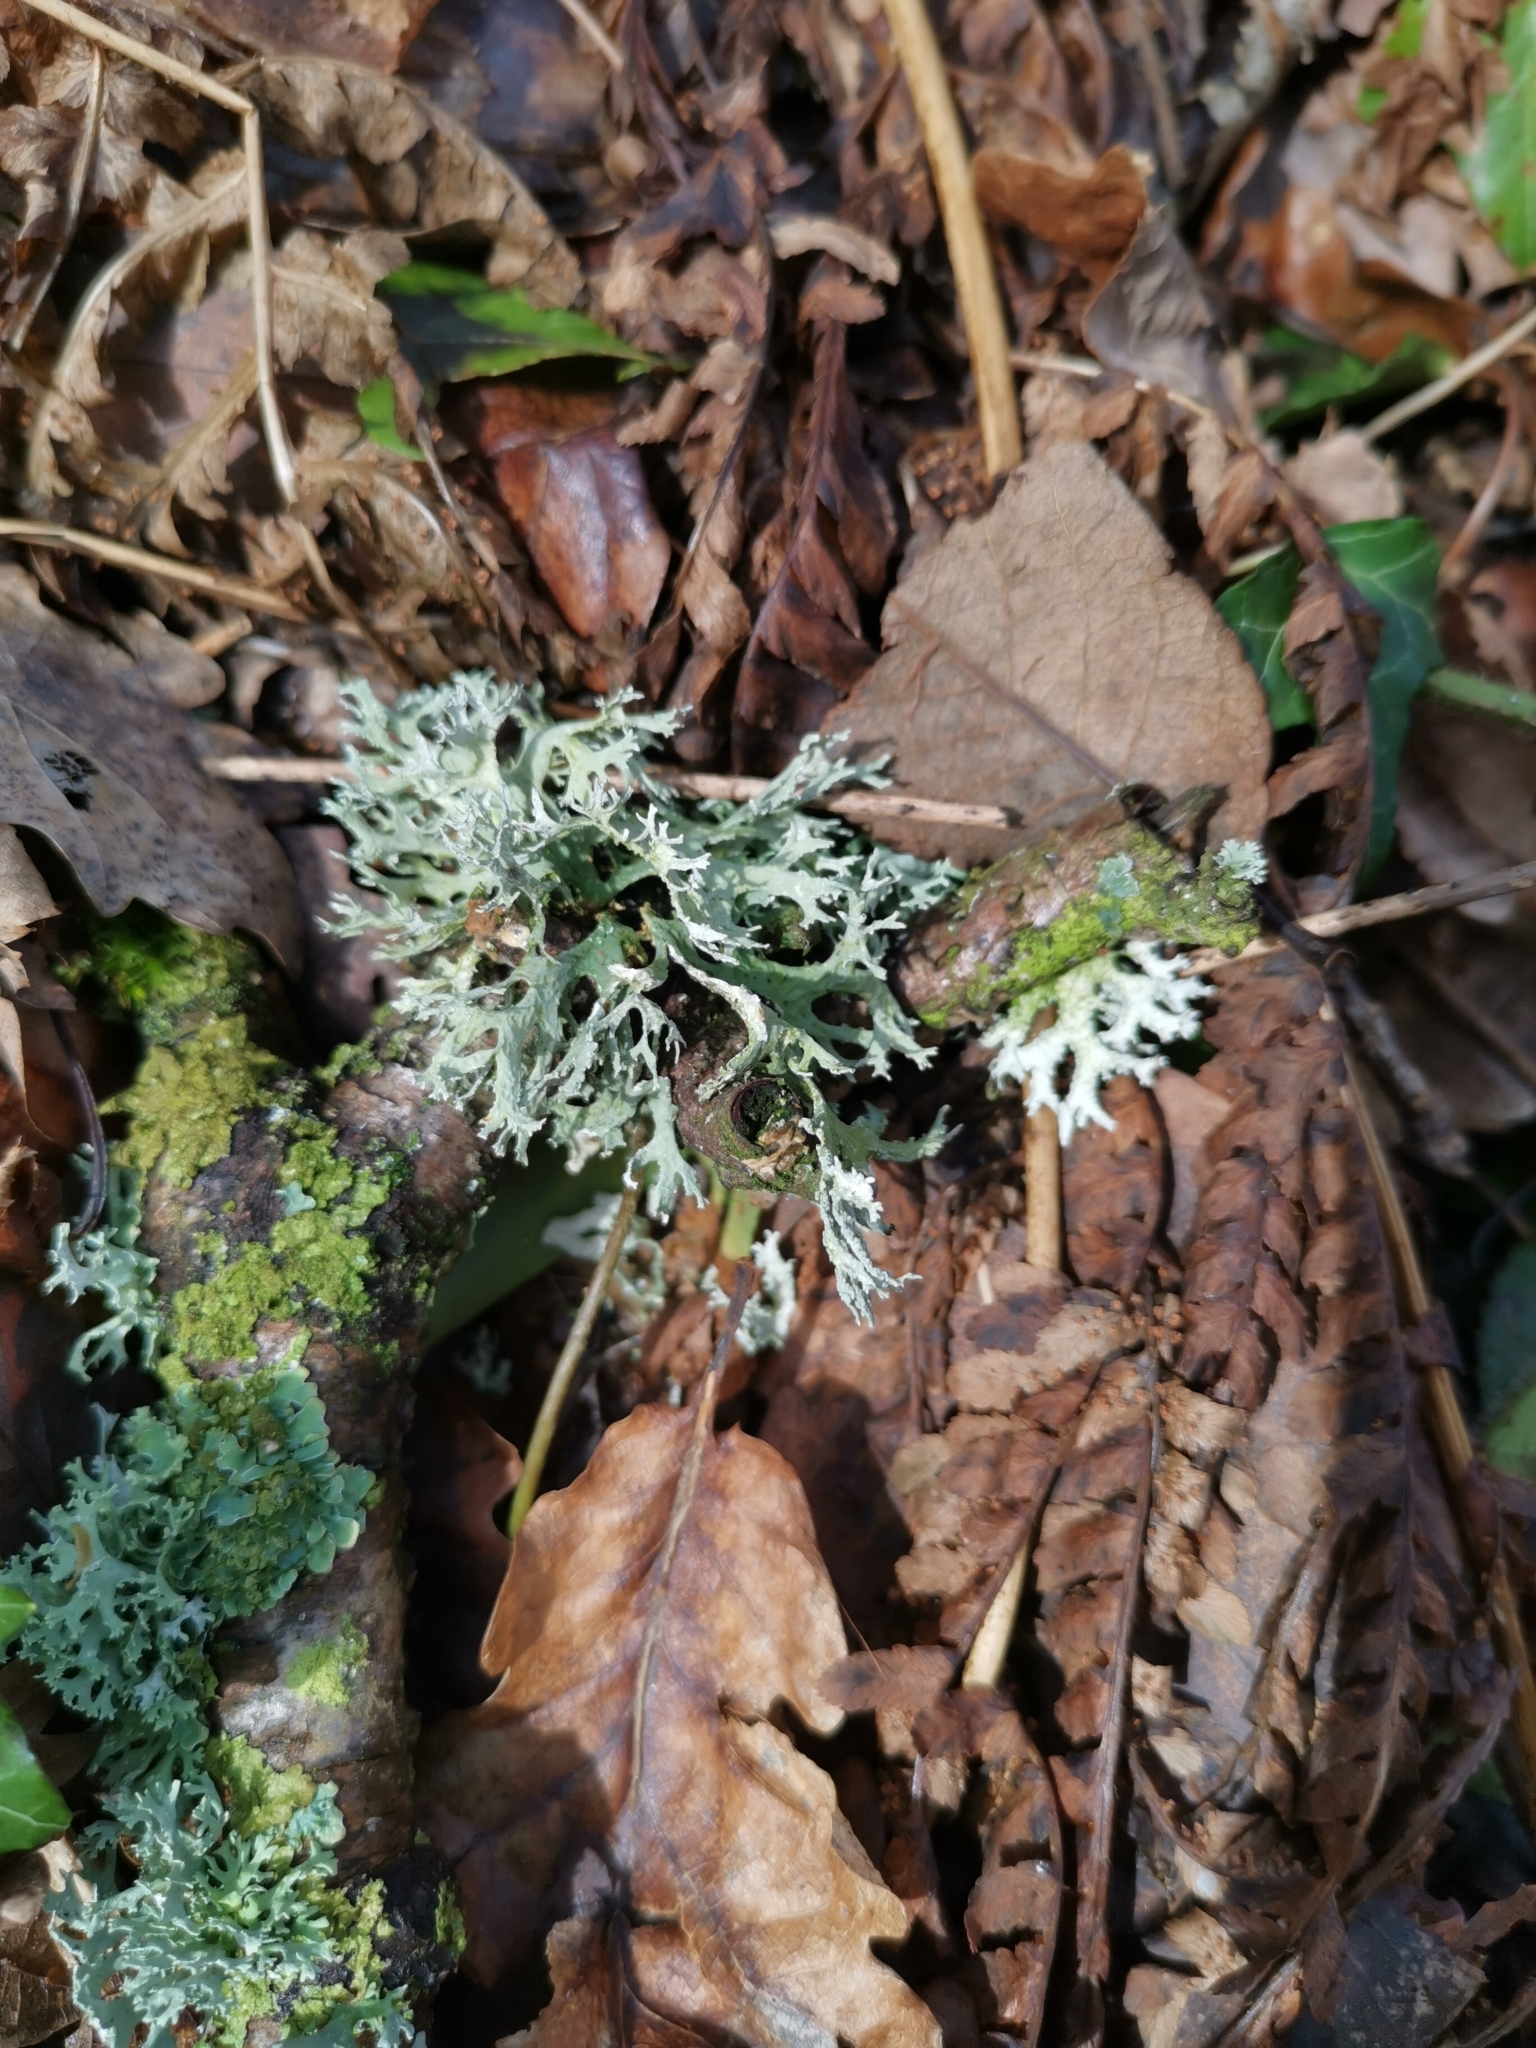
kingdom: Fungi
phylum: Ascomycota
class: Lecanoromycetes
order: Lecanorales
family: Parmeliaceae
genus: Evernia
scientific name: Evernia prunastri
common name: Oak moss
